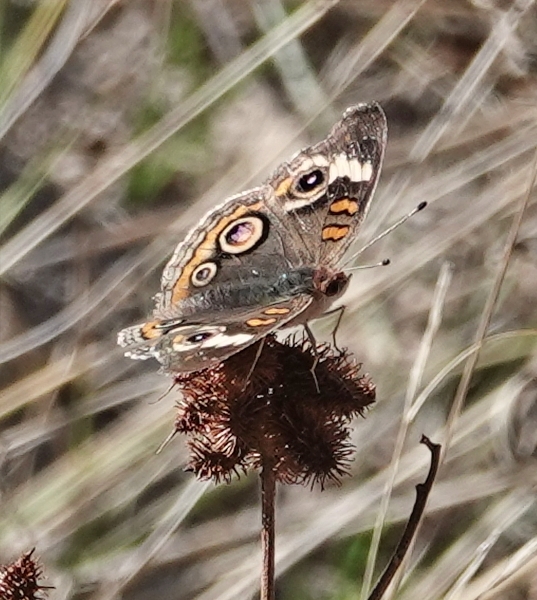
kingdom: Animalia
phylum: Arthropoda
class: Insecta
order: Lepidoptera
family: Nymphalidae
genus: Junonia
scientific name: Junonia coenia
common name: Common buckeye
